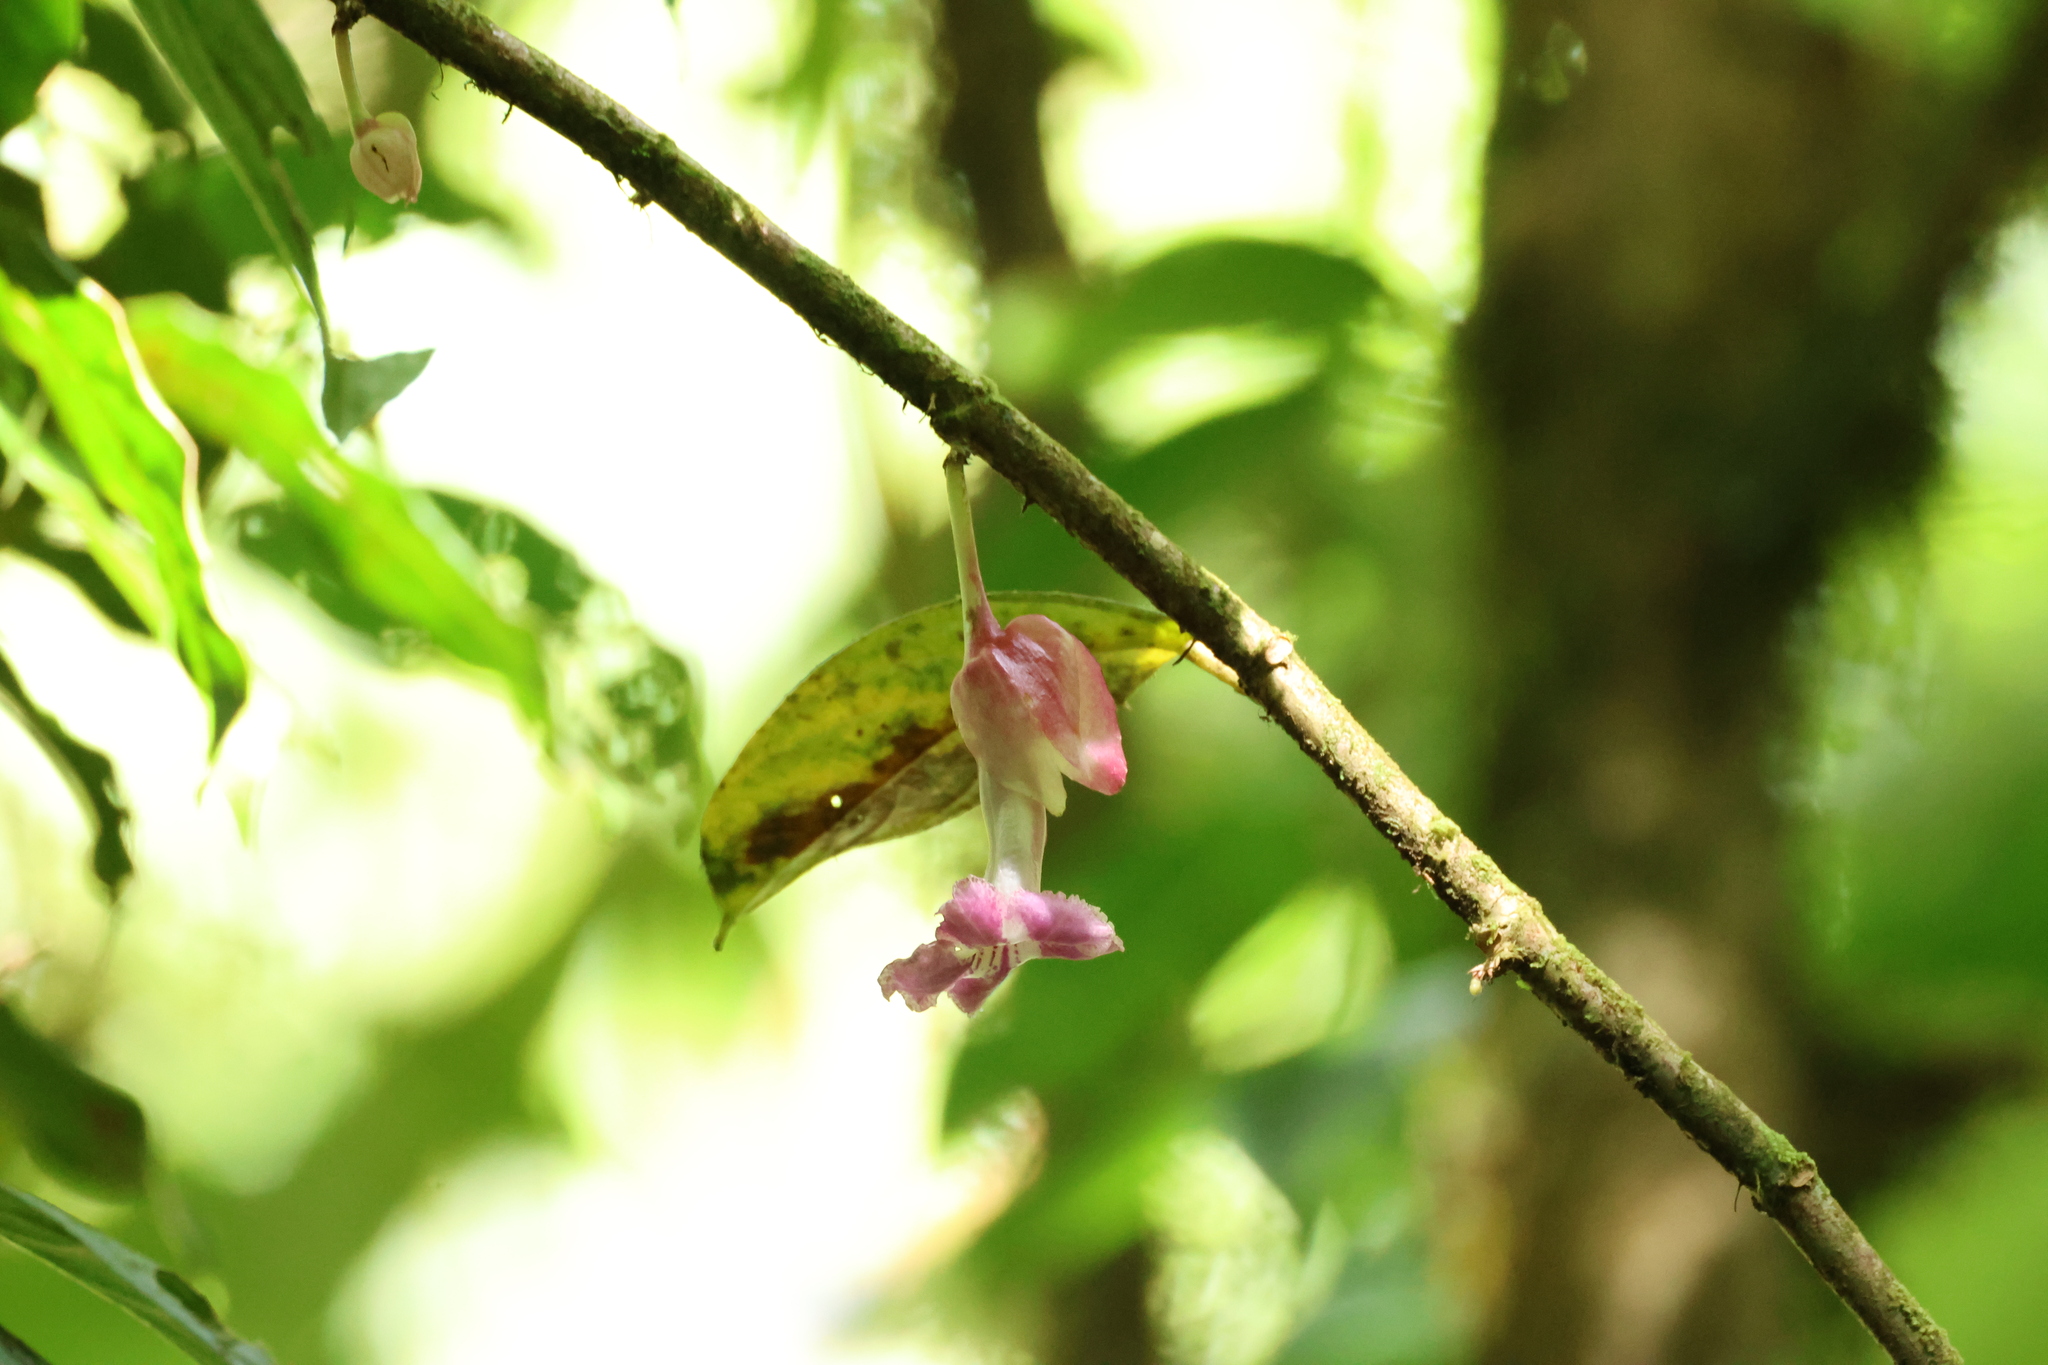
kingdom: Plantae
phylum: Tracheophyta
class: Magnoliopsida
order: Lamiales
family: Gesneriaceae
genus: Drymonia
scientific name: Drymonia conchocalyx
